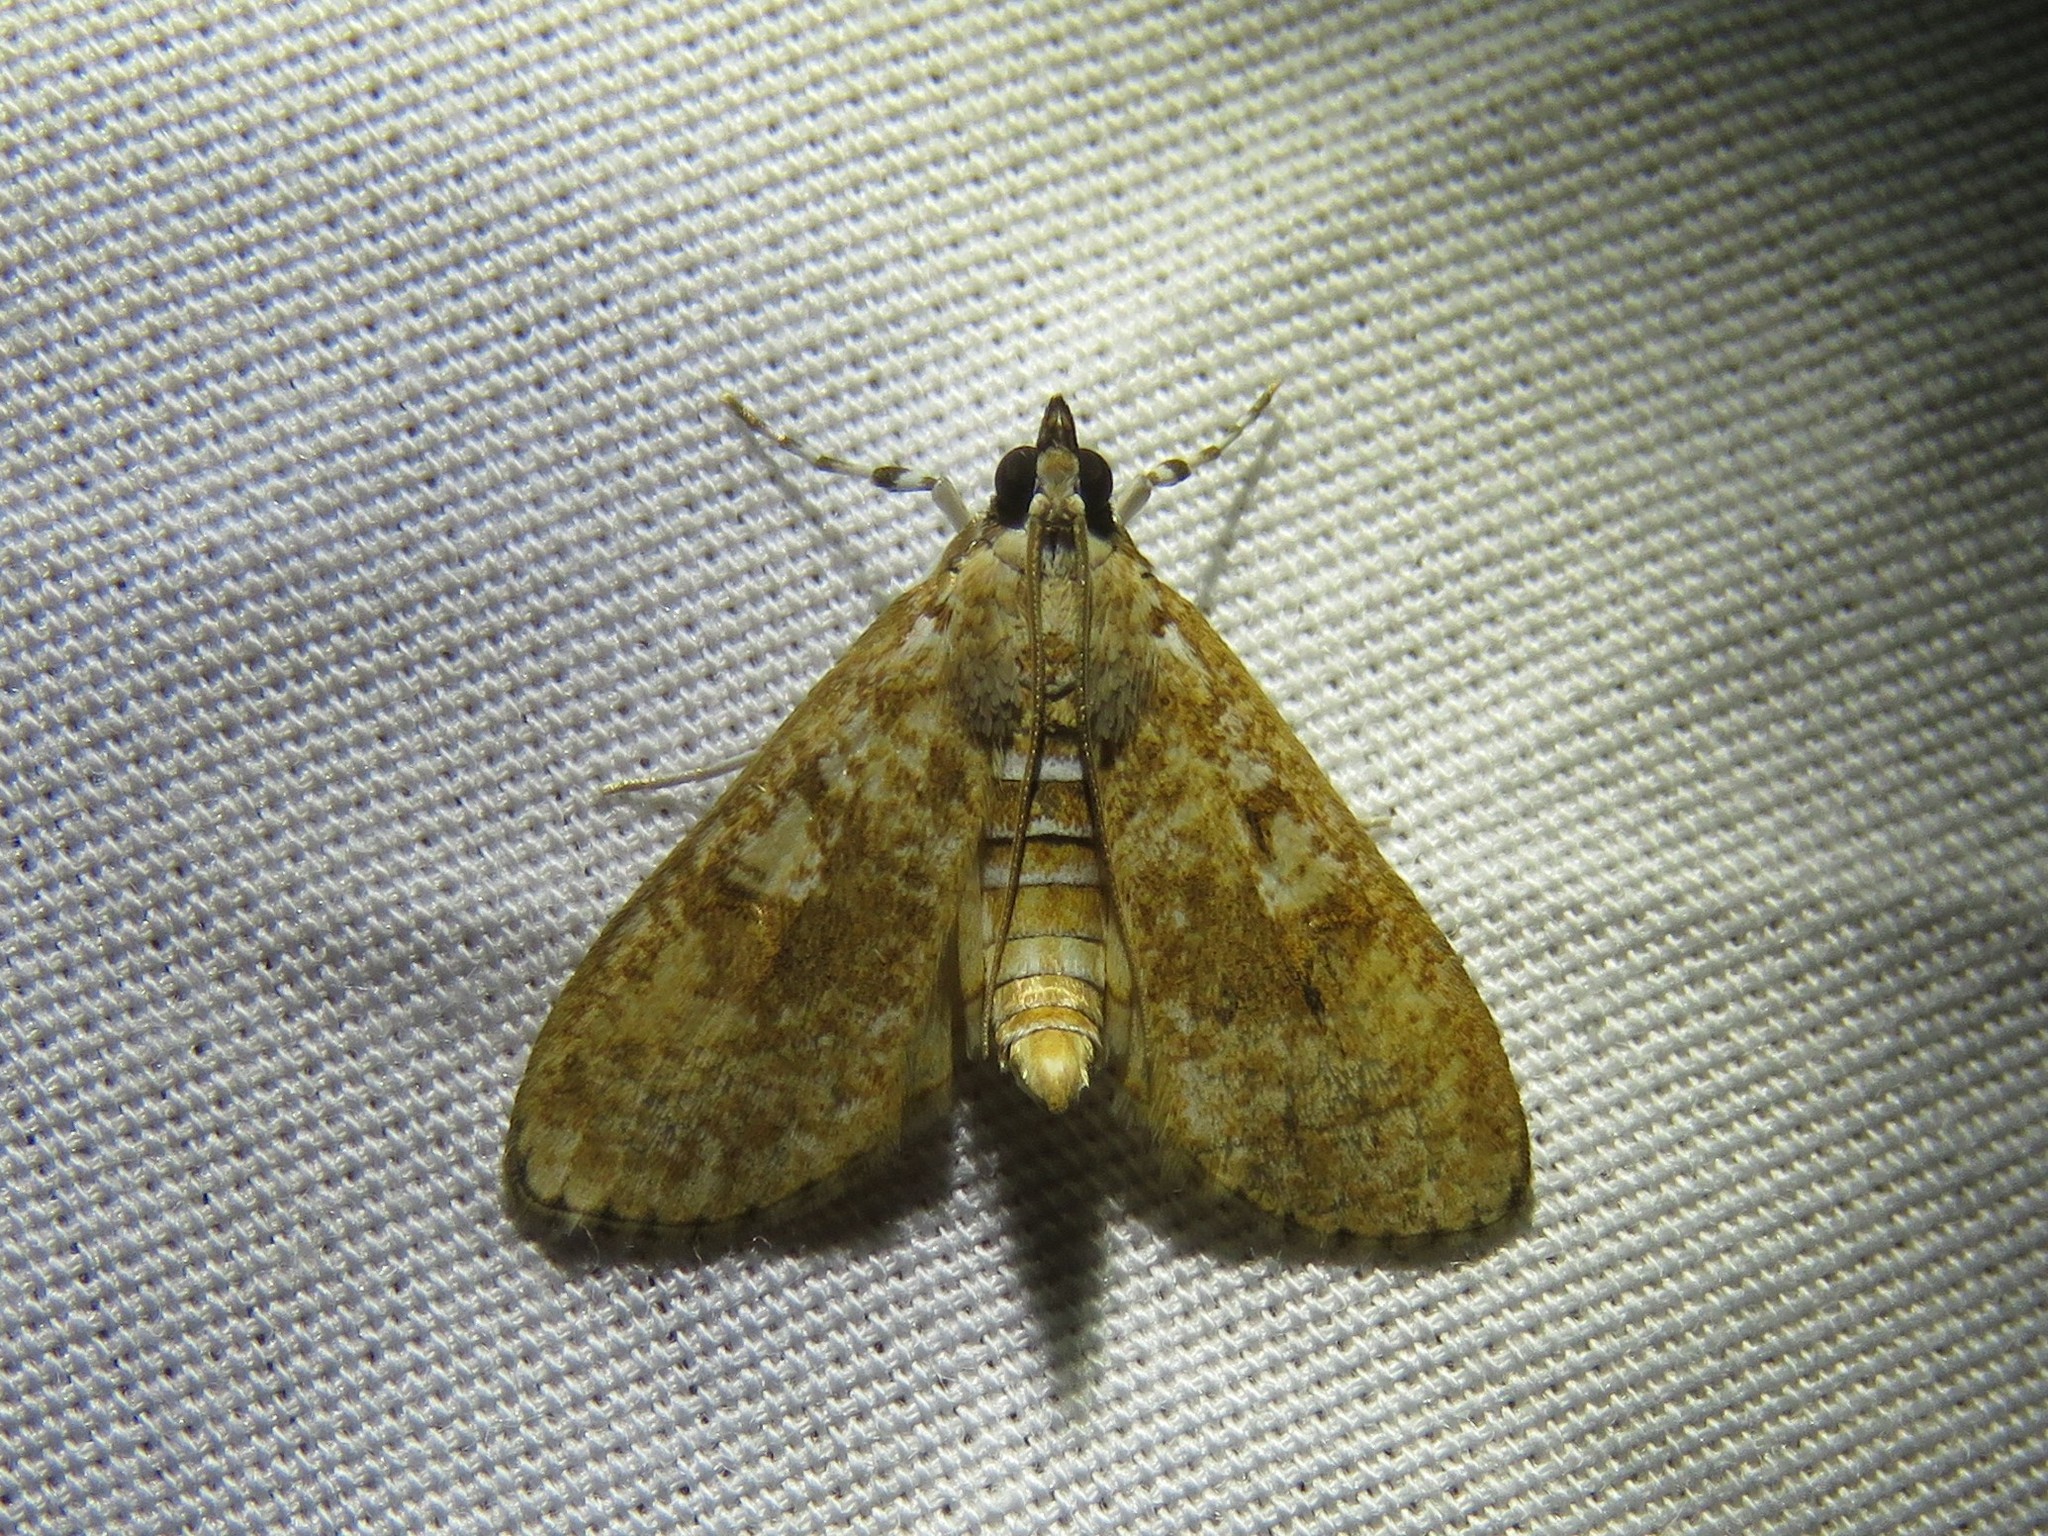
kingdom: Animalia
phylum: Arthropoda
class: Insecta
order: Lepidoptera
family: Crambidae
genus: Palpita
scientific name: Palpita freemanalis
